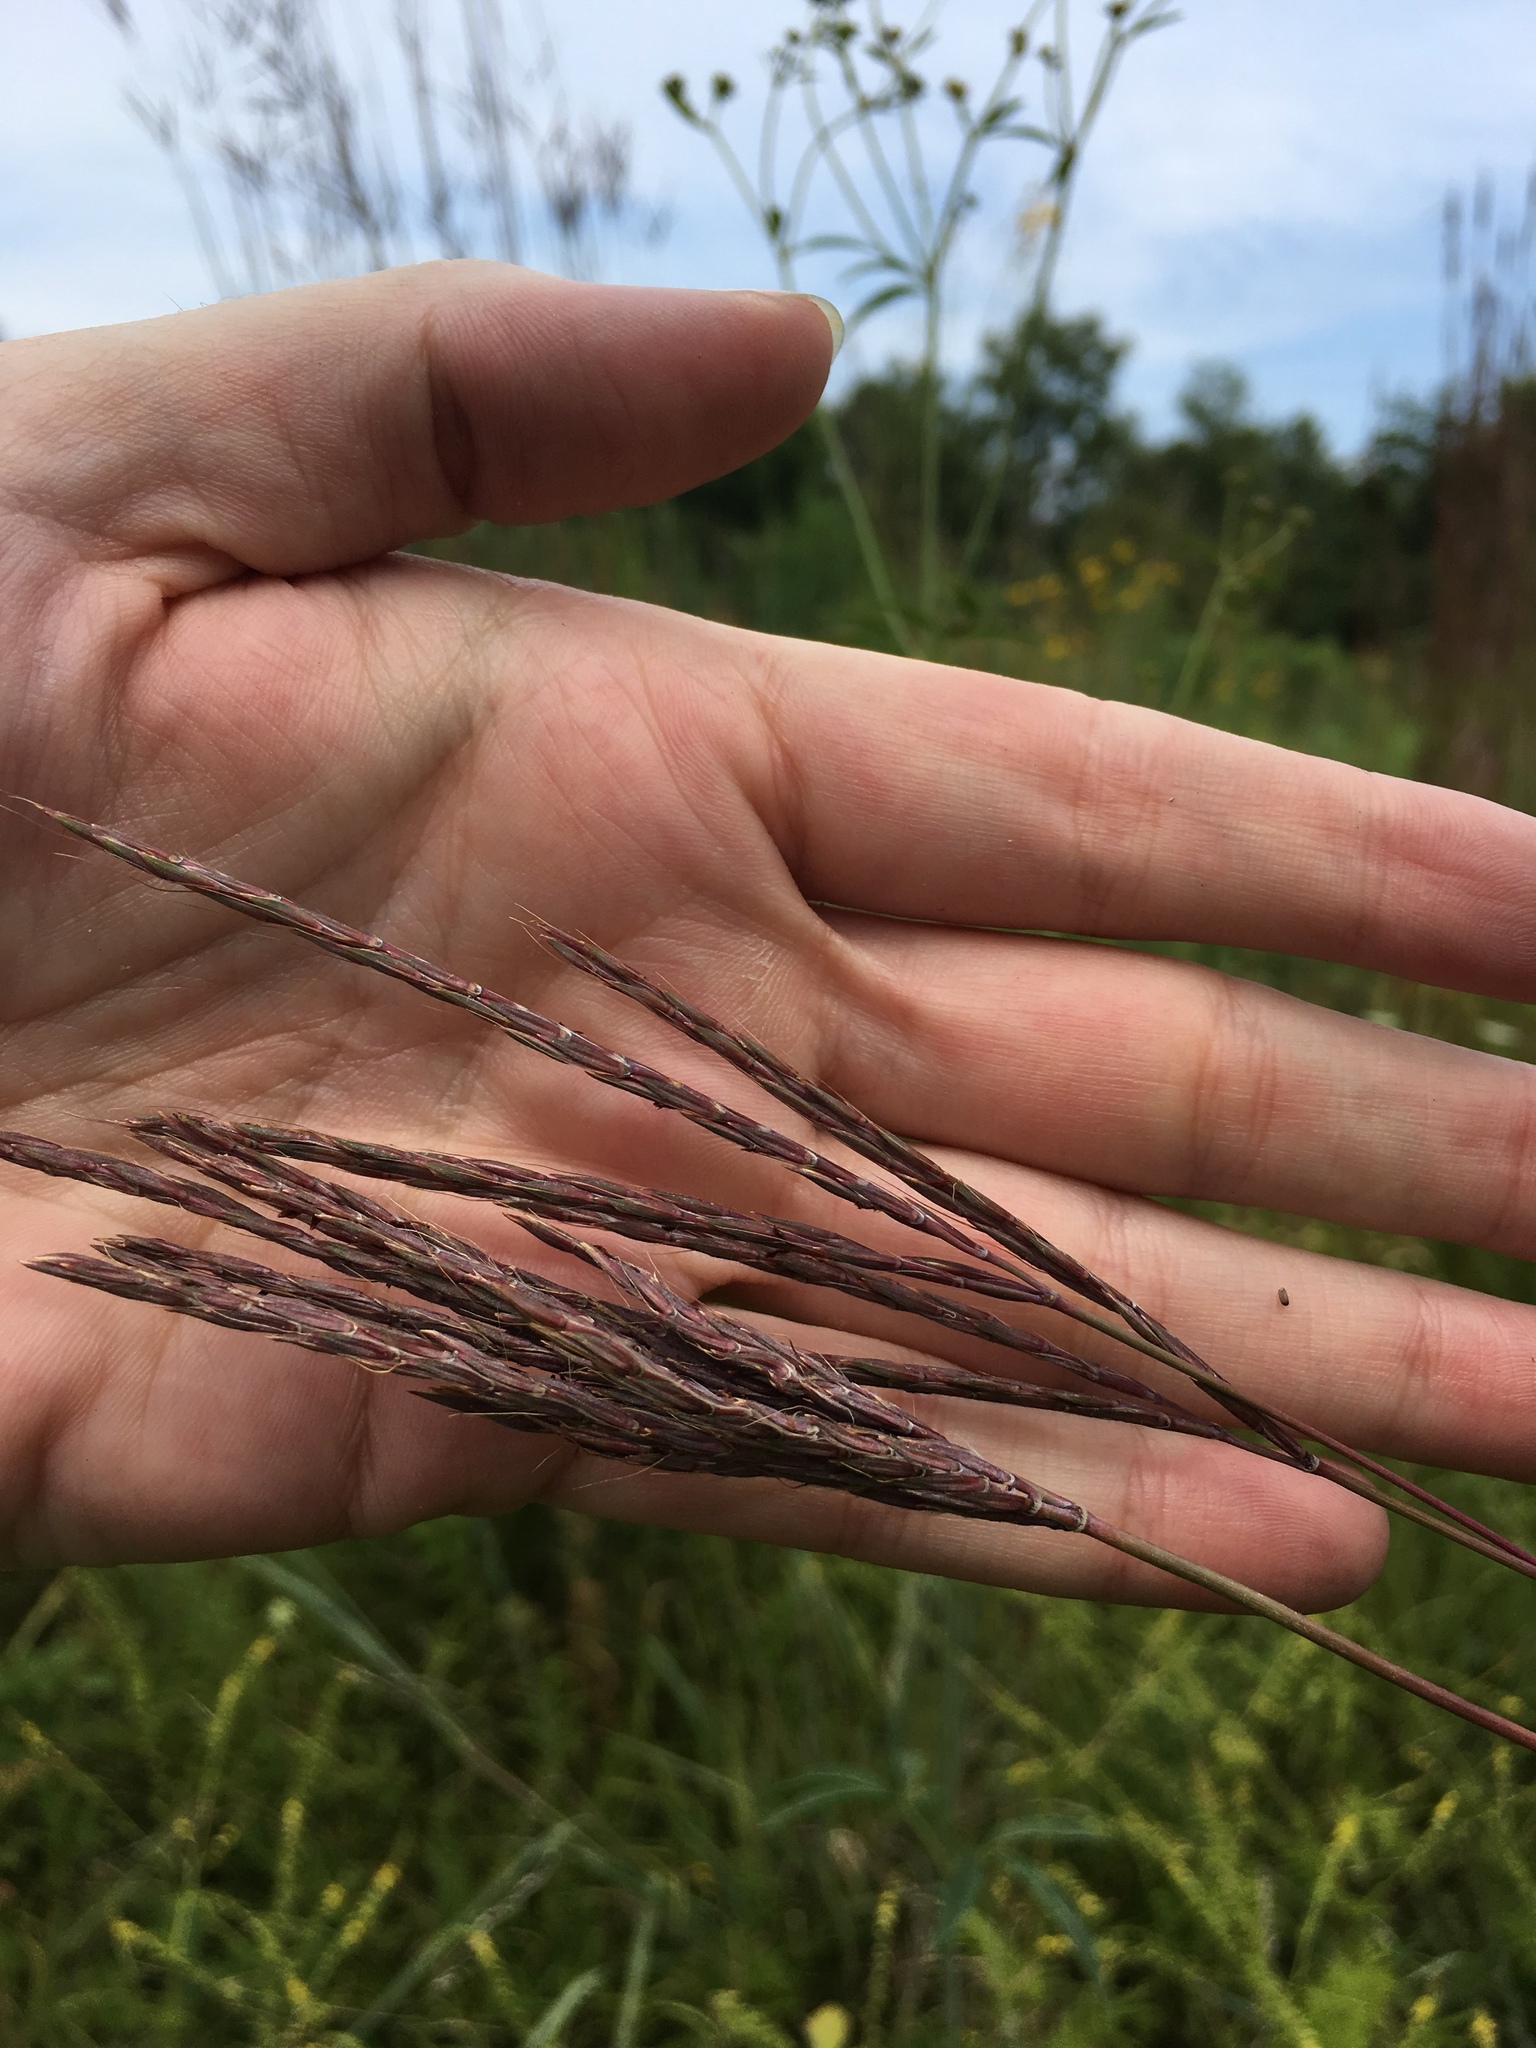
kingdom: Plantae
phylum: Tracheophyta
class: Liliopsida
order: Poales
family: Poaceae
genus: Andropogon
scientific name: Andropogon gerardi
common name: Big bluestem
